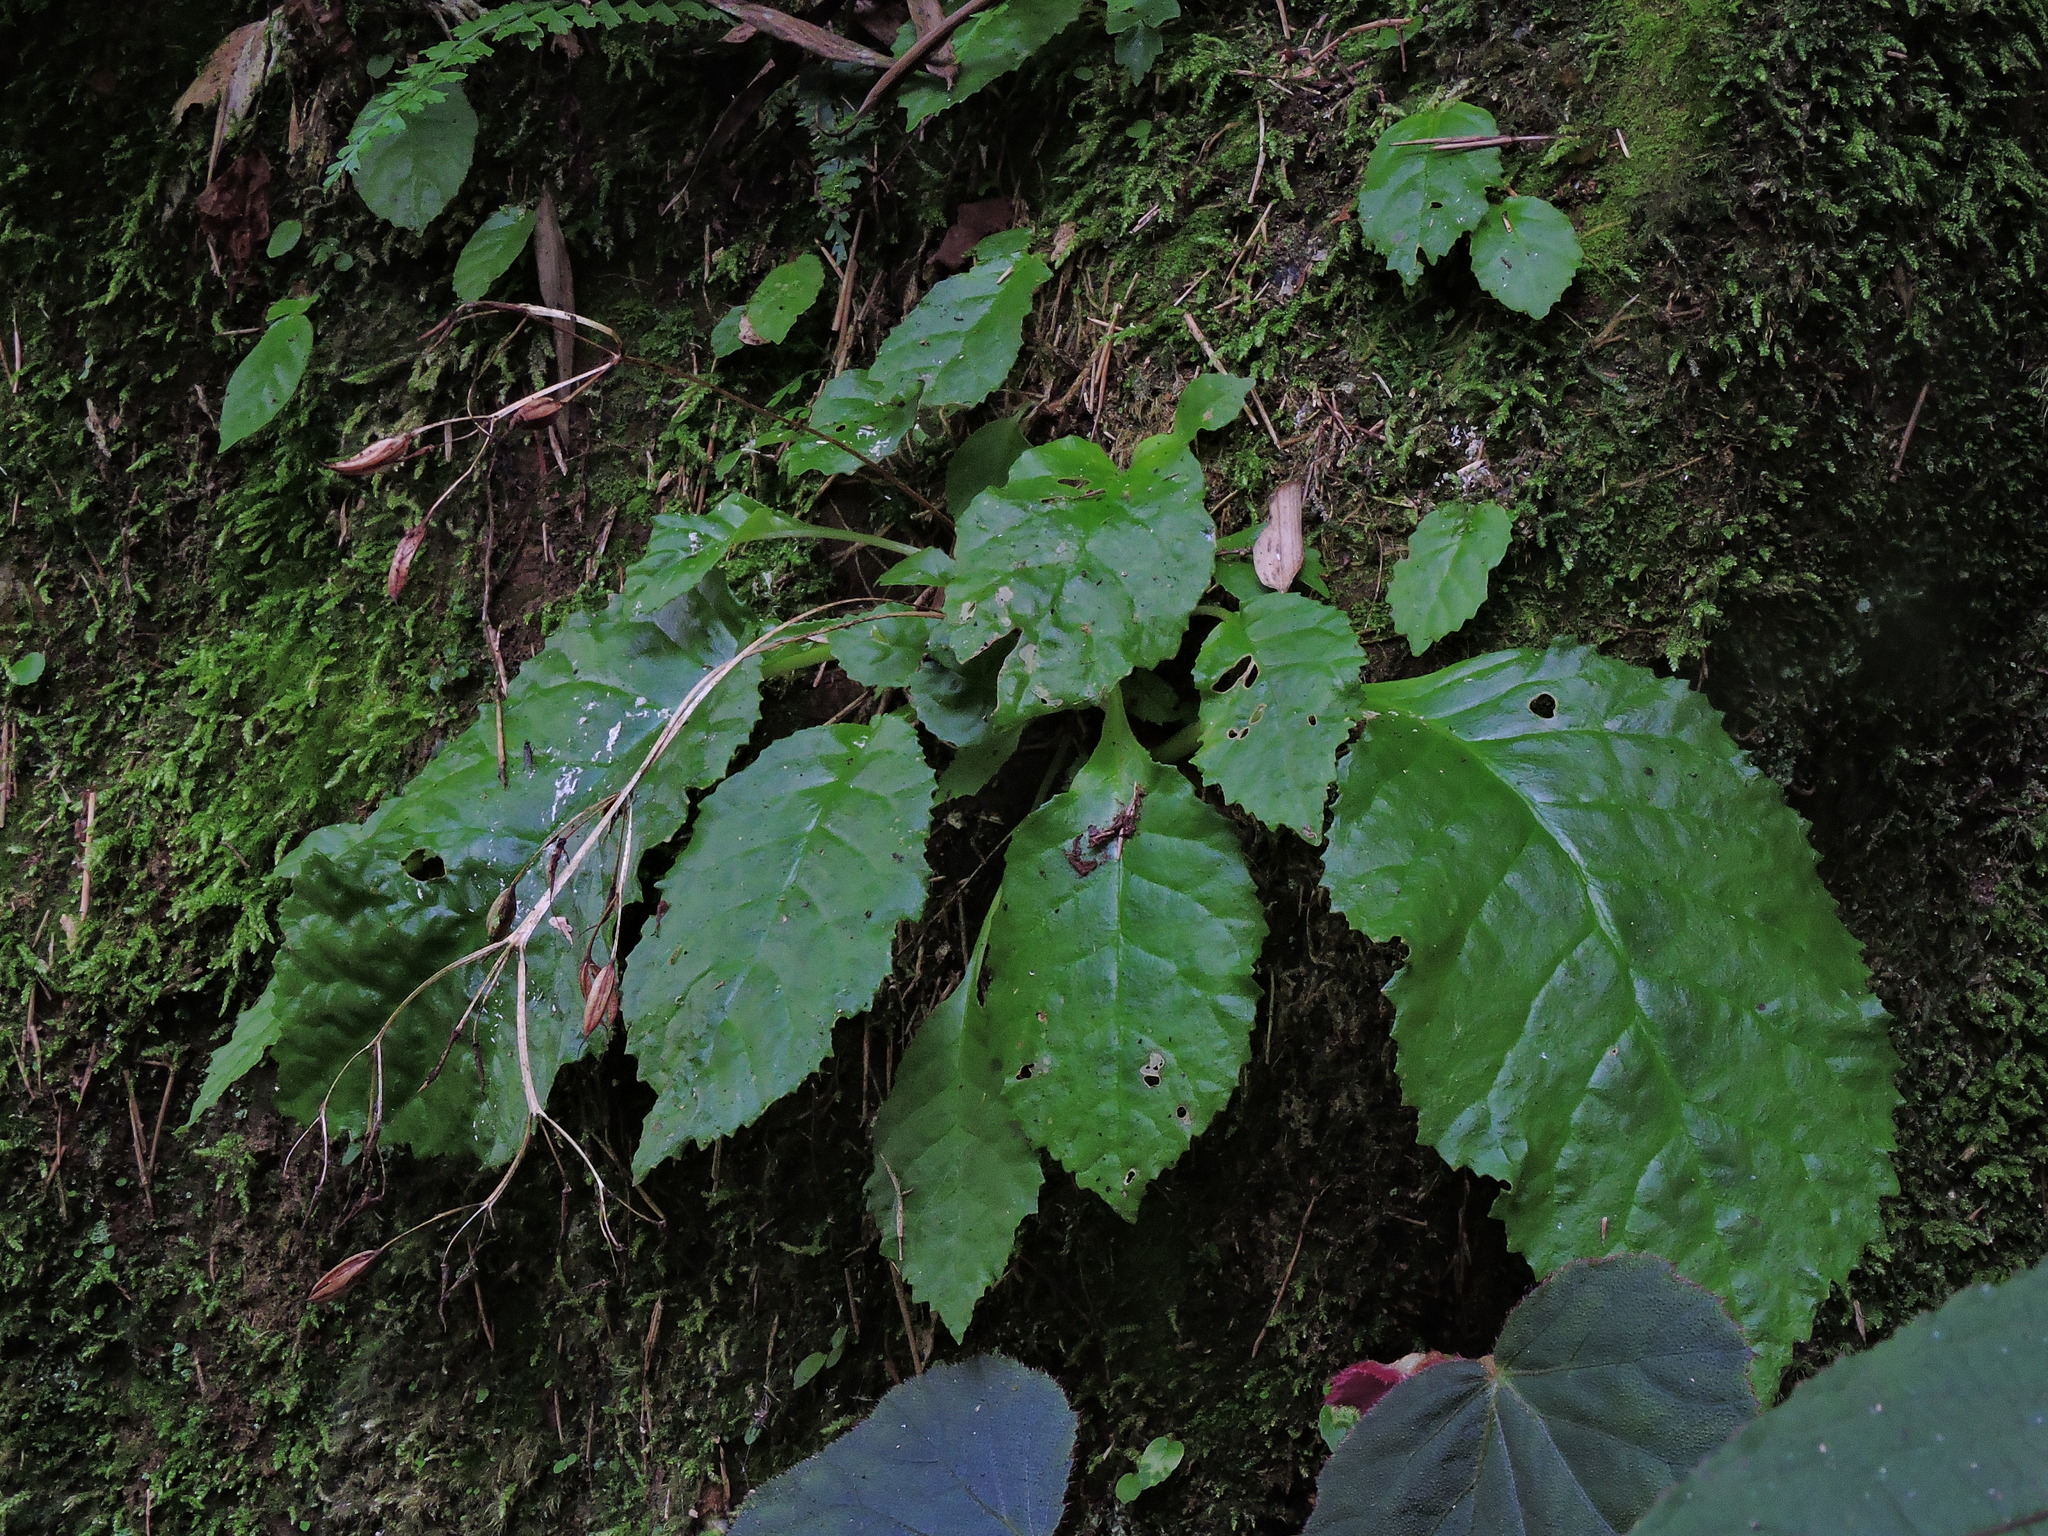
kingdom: Plantae
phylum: Tracheophyta
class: Magnoliopsida
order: Lamiales
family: Gesneriaceae
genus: Conandron
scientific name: Conandron ramondioides
